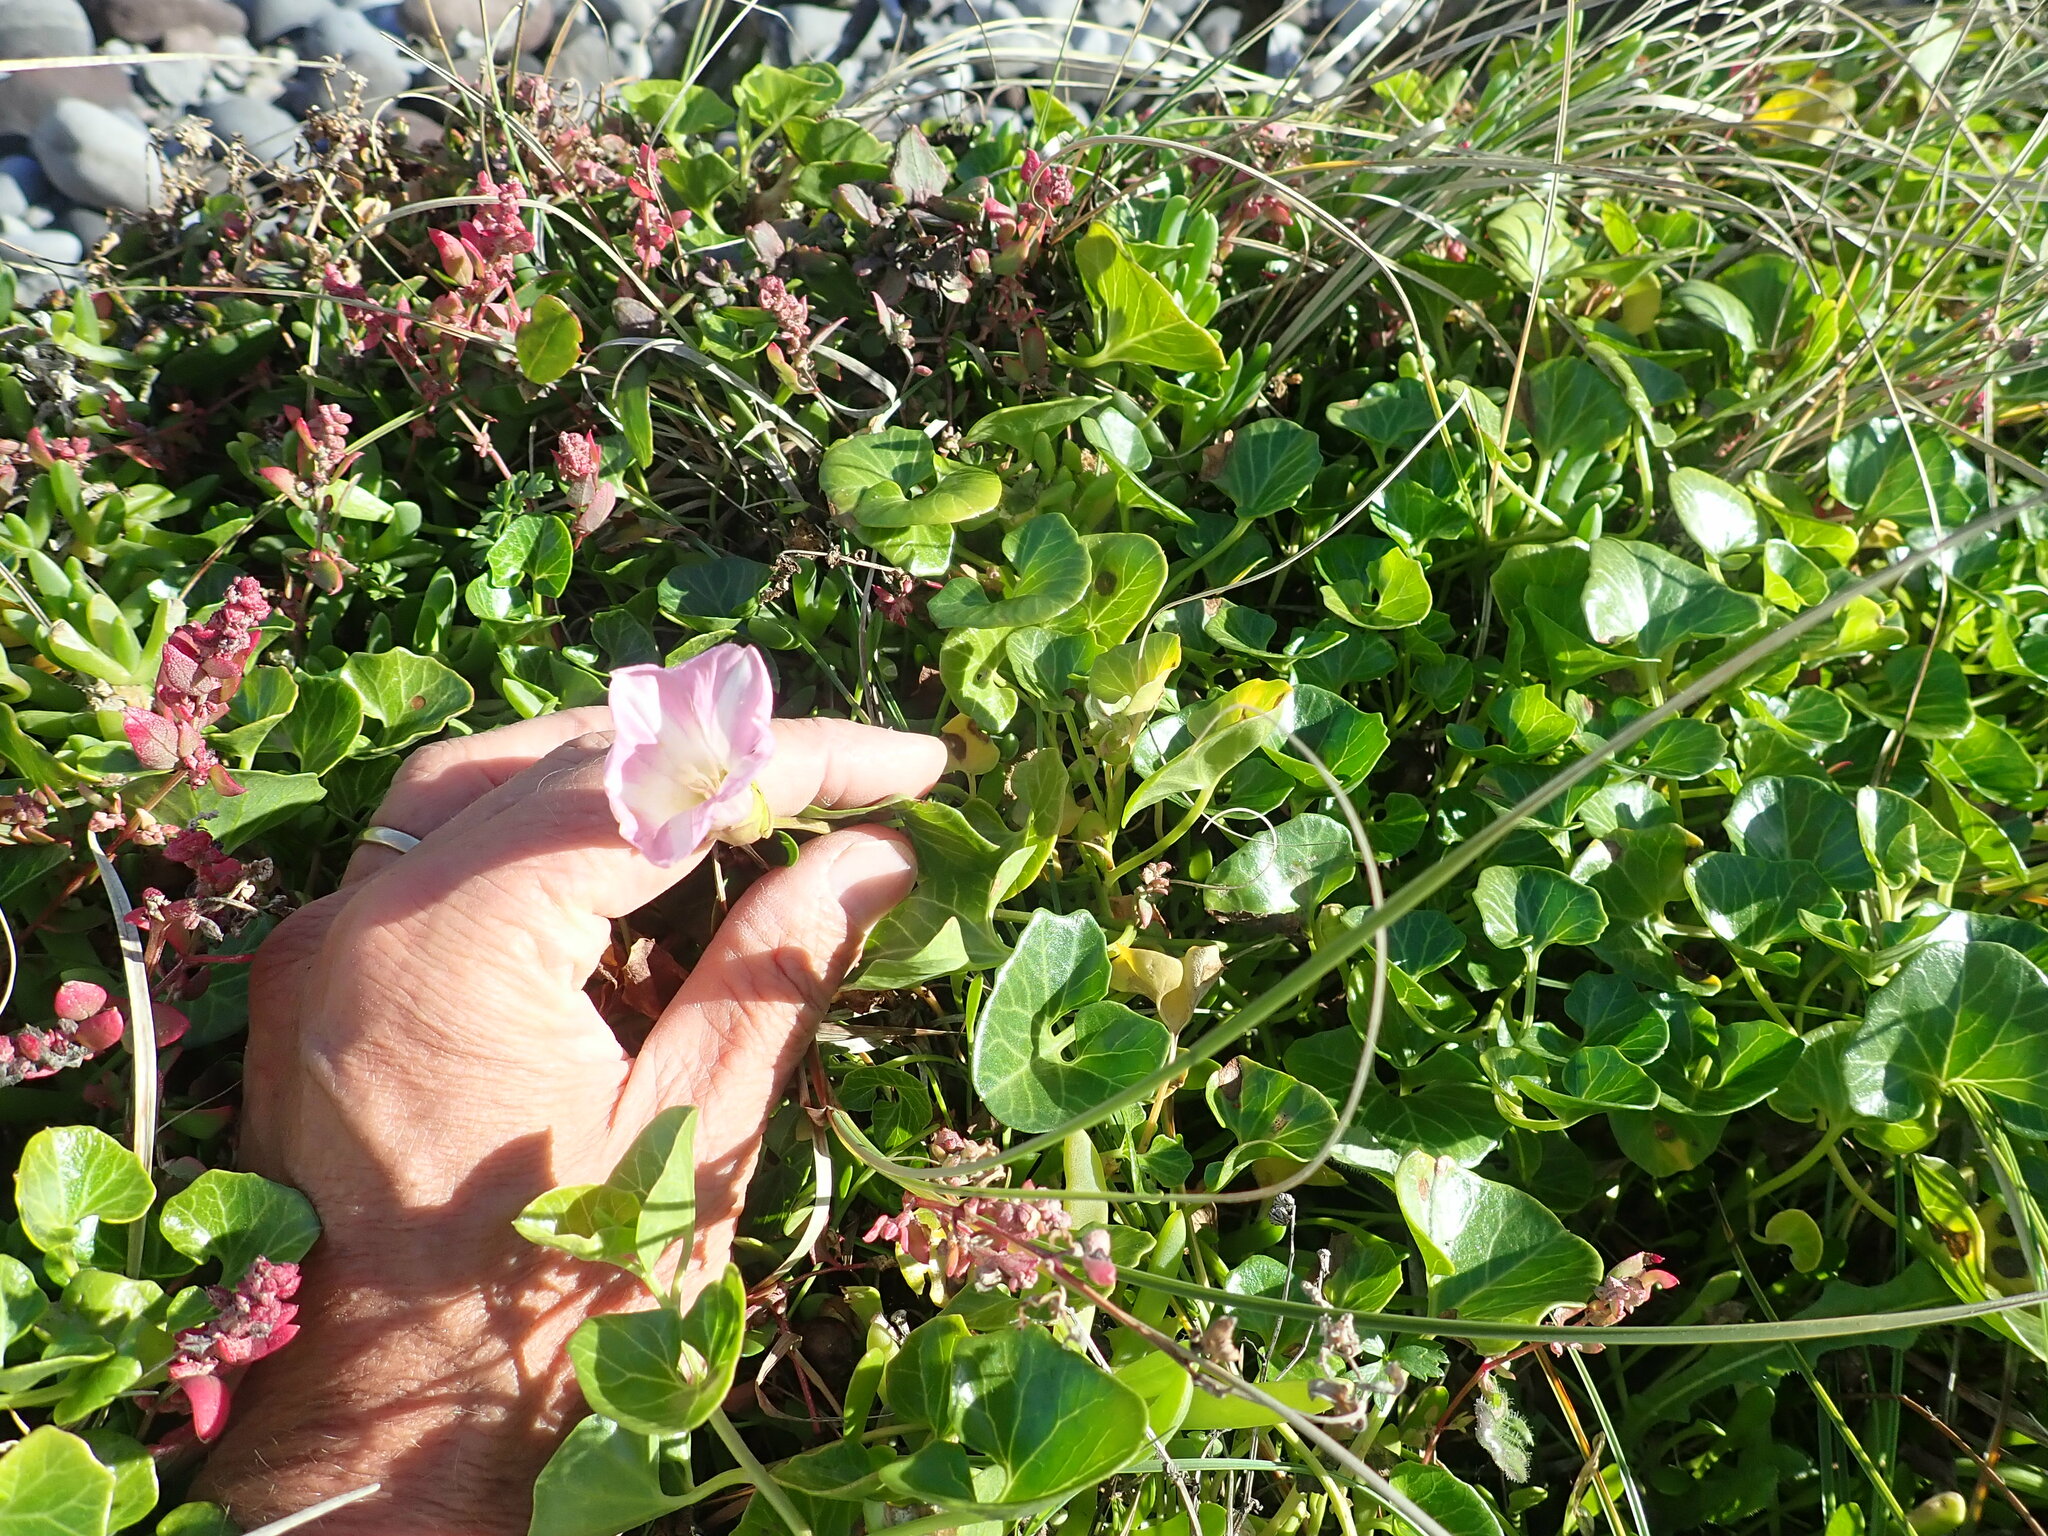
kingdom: Plantae
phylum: Tracheophyta
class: Magnoliopsida
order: Solanales
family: Convolvulaceae
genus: Calystegia
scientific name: Calystegia soldanella
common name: Sea bindweed
